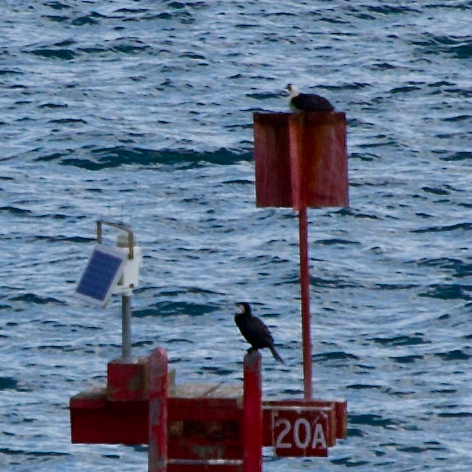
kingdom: Animalia
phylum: Chordata
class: Aves
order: Suliformes
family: Phalacrocoracidae
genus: Microcarbo
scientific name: Microcarbo melanoleucos
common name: Little pied cormorant
